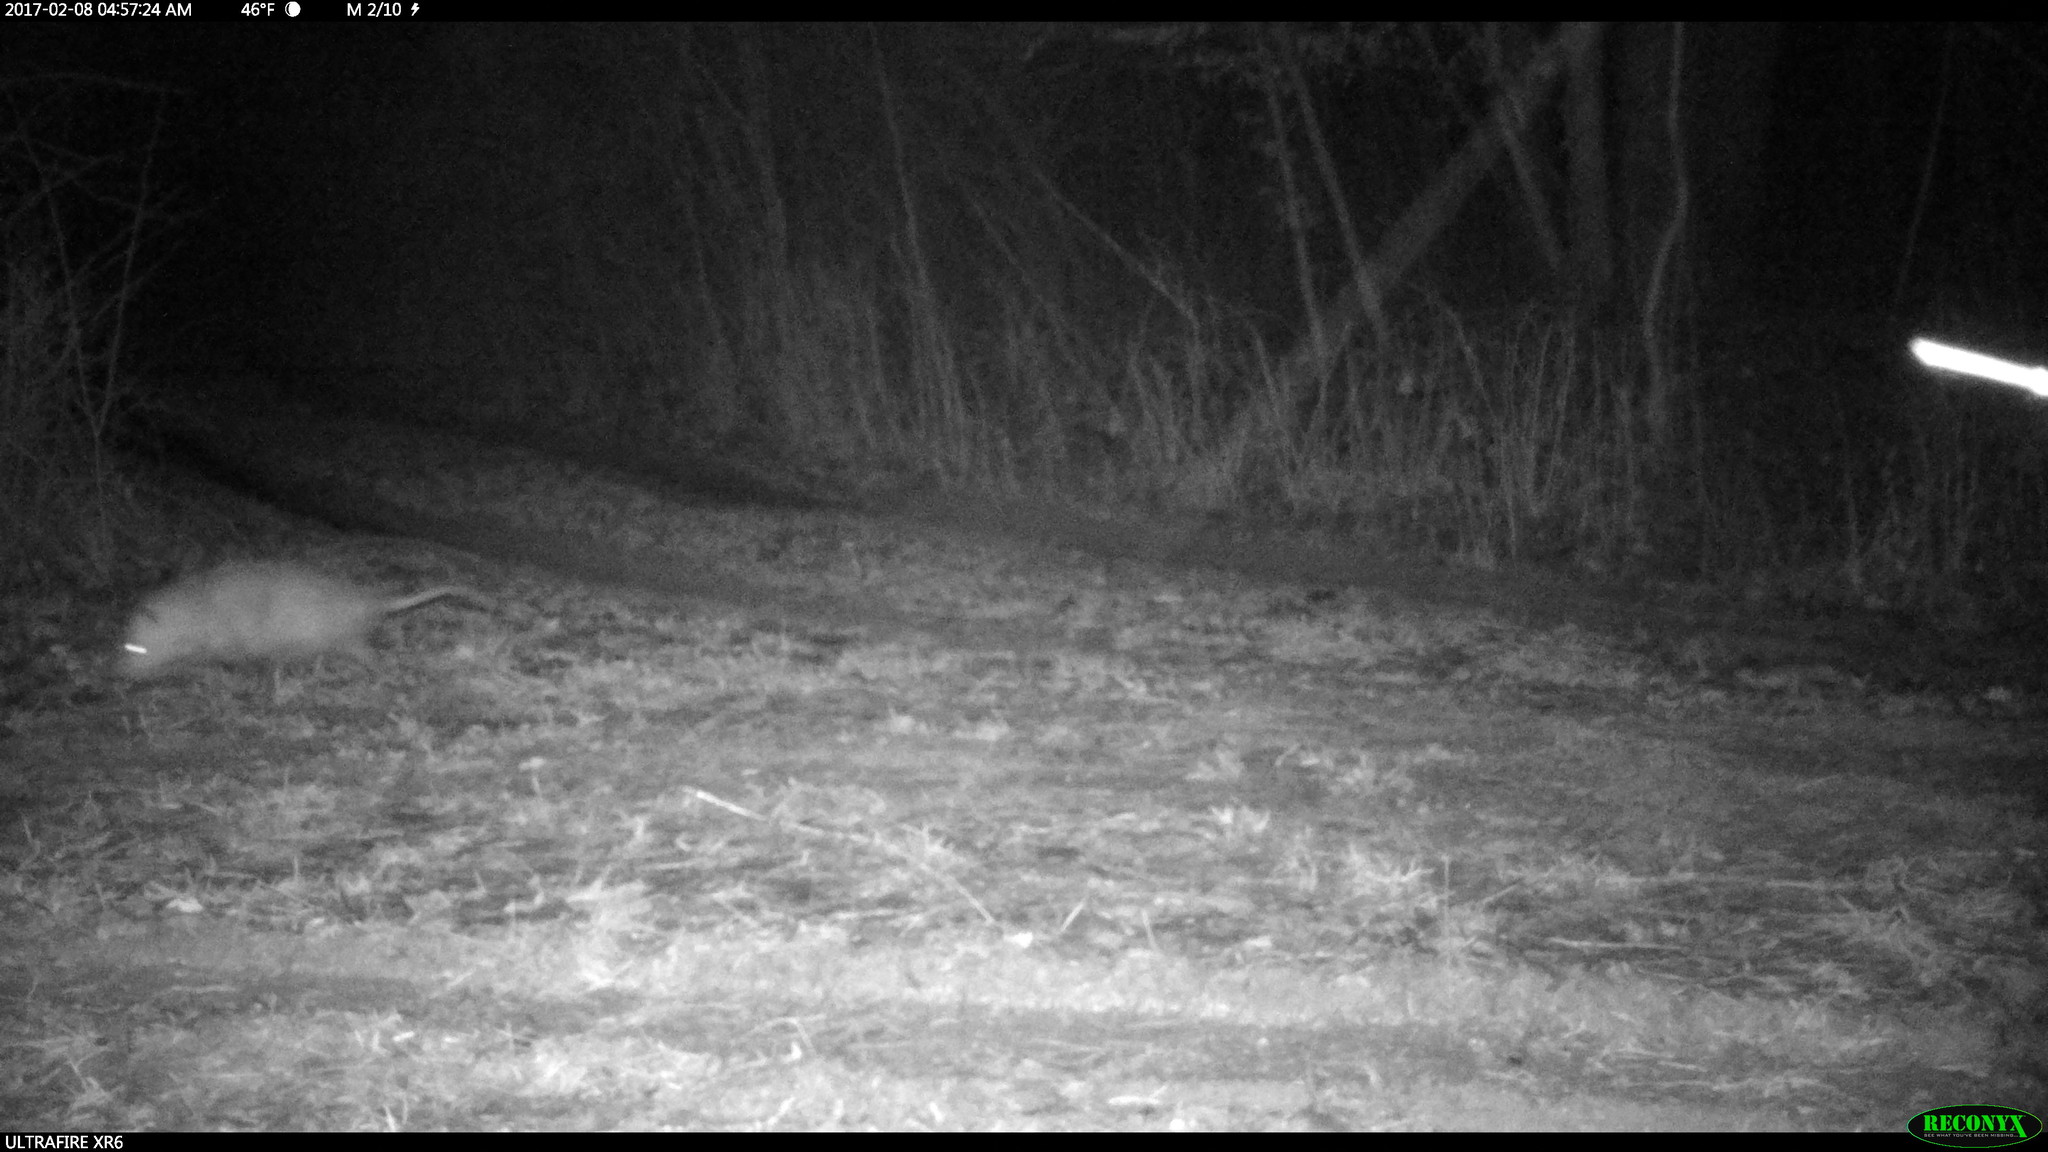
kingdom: Animalia
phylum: Chordata
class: Mammalia
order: Didelphimorphia
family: Didelphidae
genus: Didelphis
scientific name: Didelphis virginiana
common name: Virginia opossum
